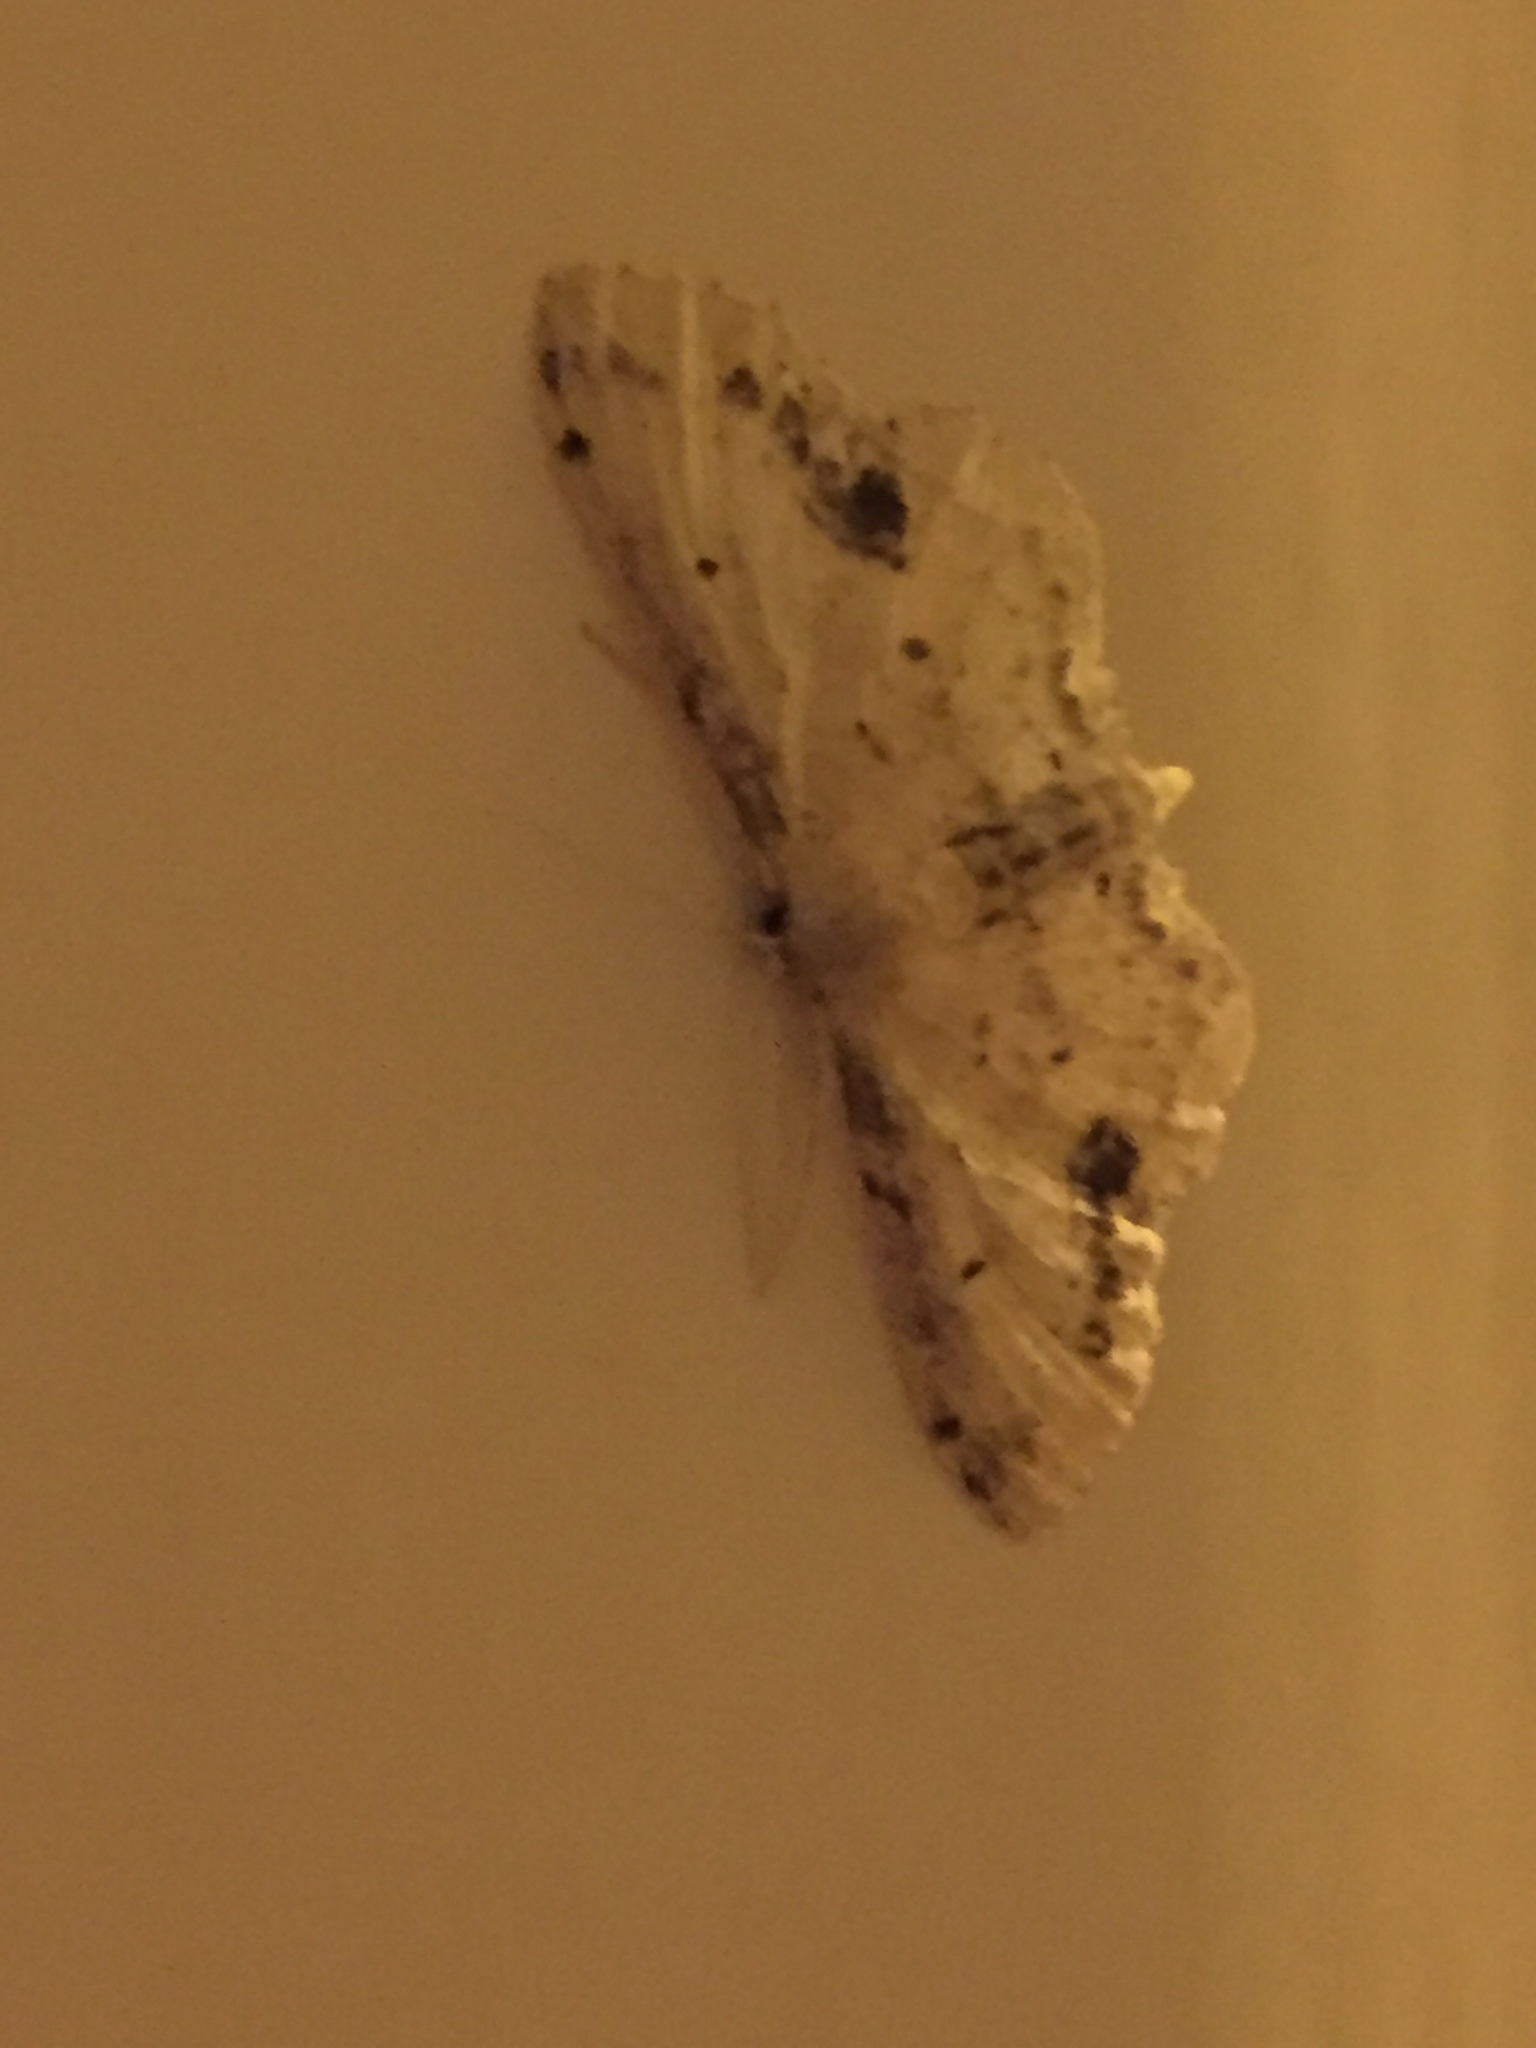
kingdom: Animalia
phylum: Arthropoda
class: Insecta
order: Lepidoptera
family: Geometridae
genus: Idaea
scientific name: Idaea dimidiata
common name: Single-dotted wave
